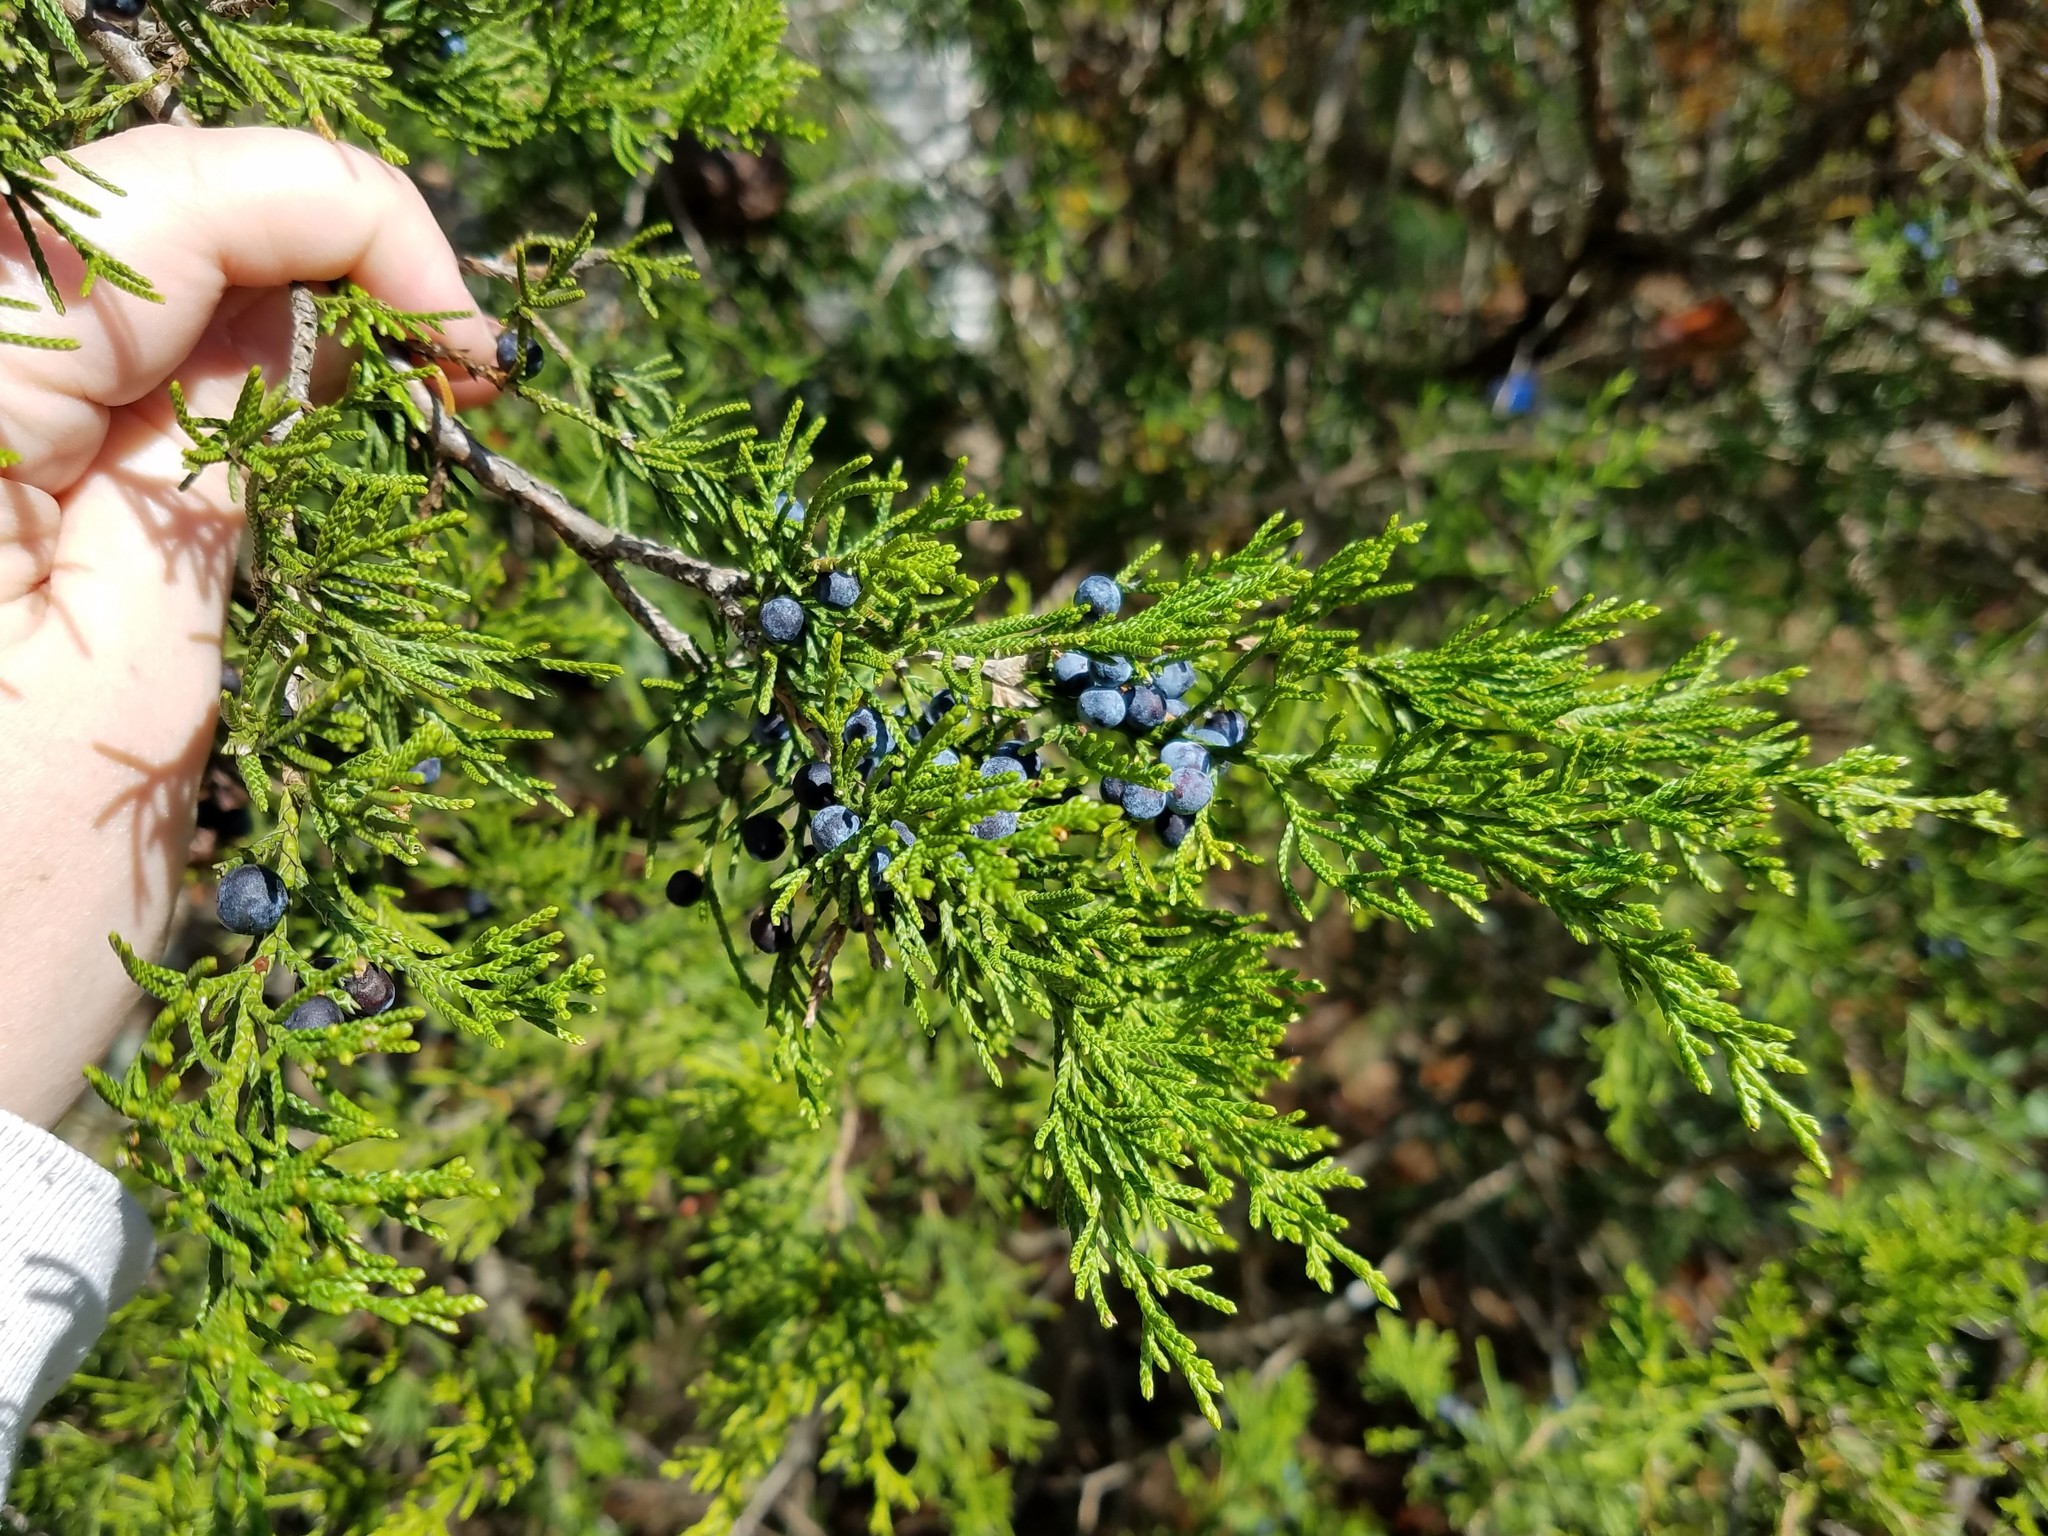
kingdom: Plantae
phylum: Tracheophyta
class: Pinopsida
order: Pinales
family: Cupressaceae
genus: Juniperus
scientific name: Juniperus virginiana
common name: Red juniper
